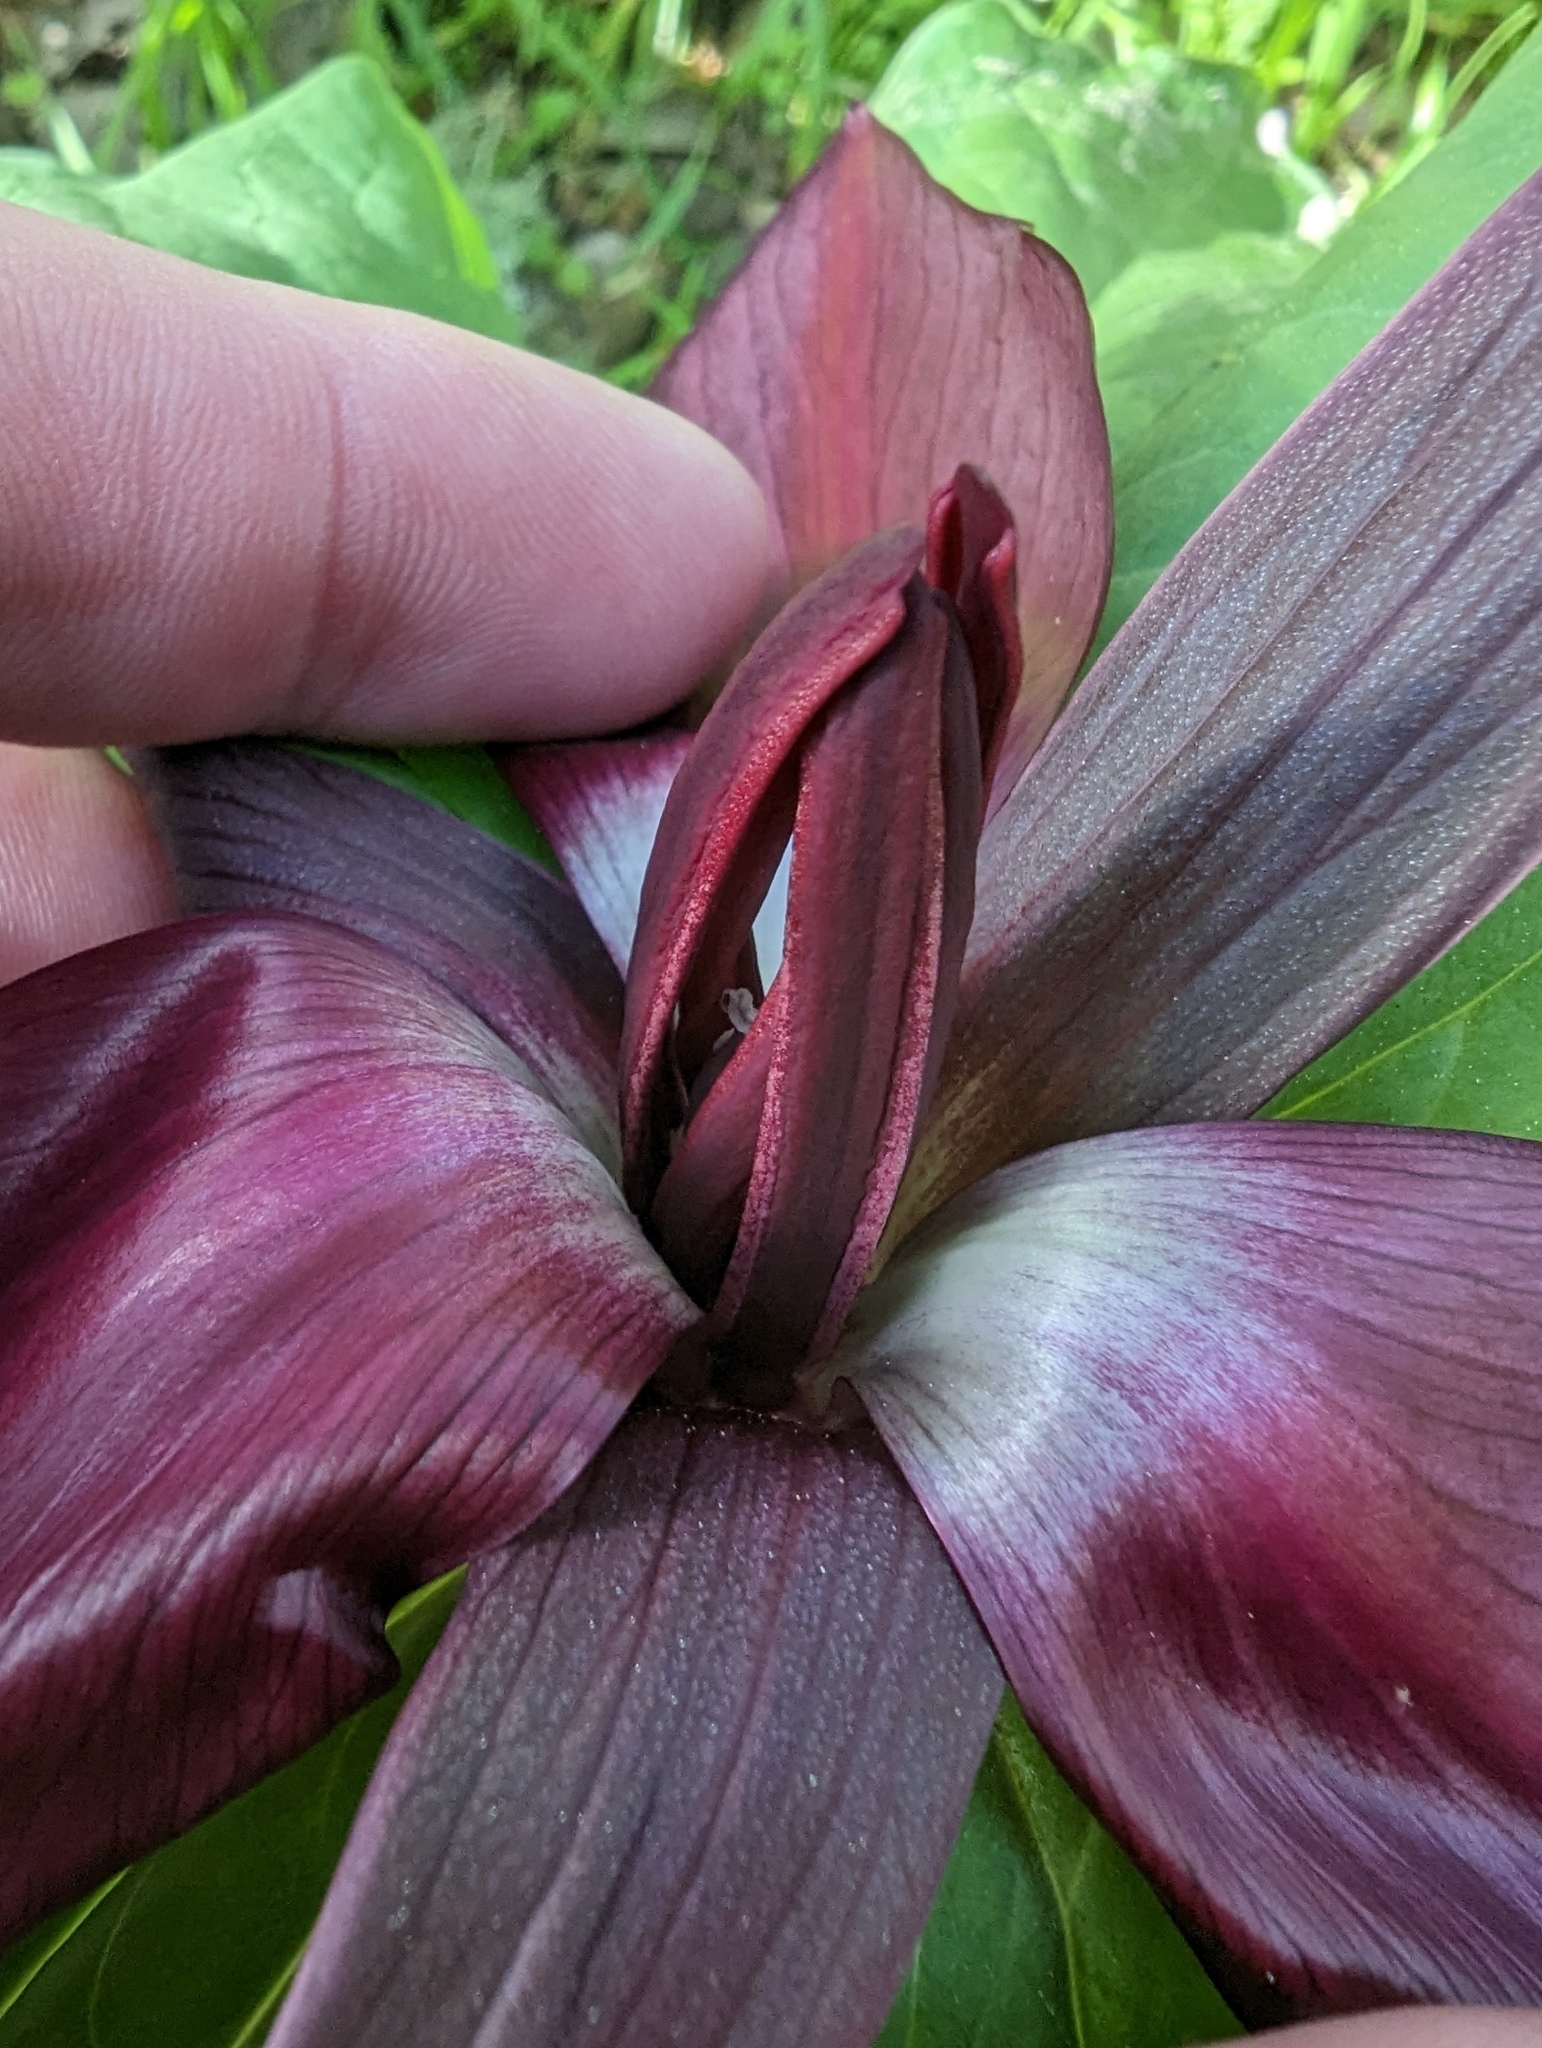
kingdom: Plantae
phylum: Tracheophyta
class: Liliopsida
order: Liliales
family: Melanthiaceae
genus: Trillium
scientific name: Trillium chloropetalum
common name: Giant trillium
